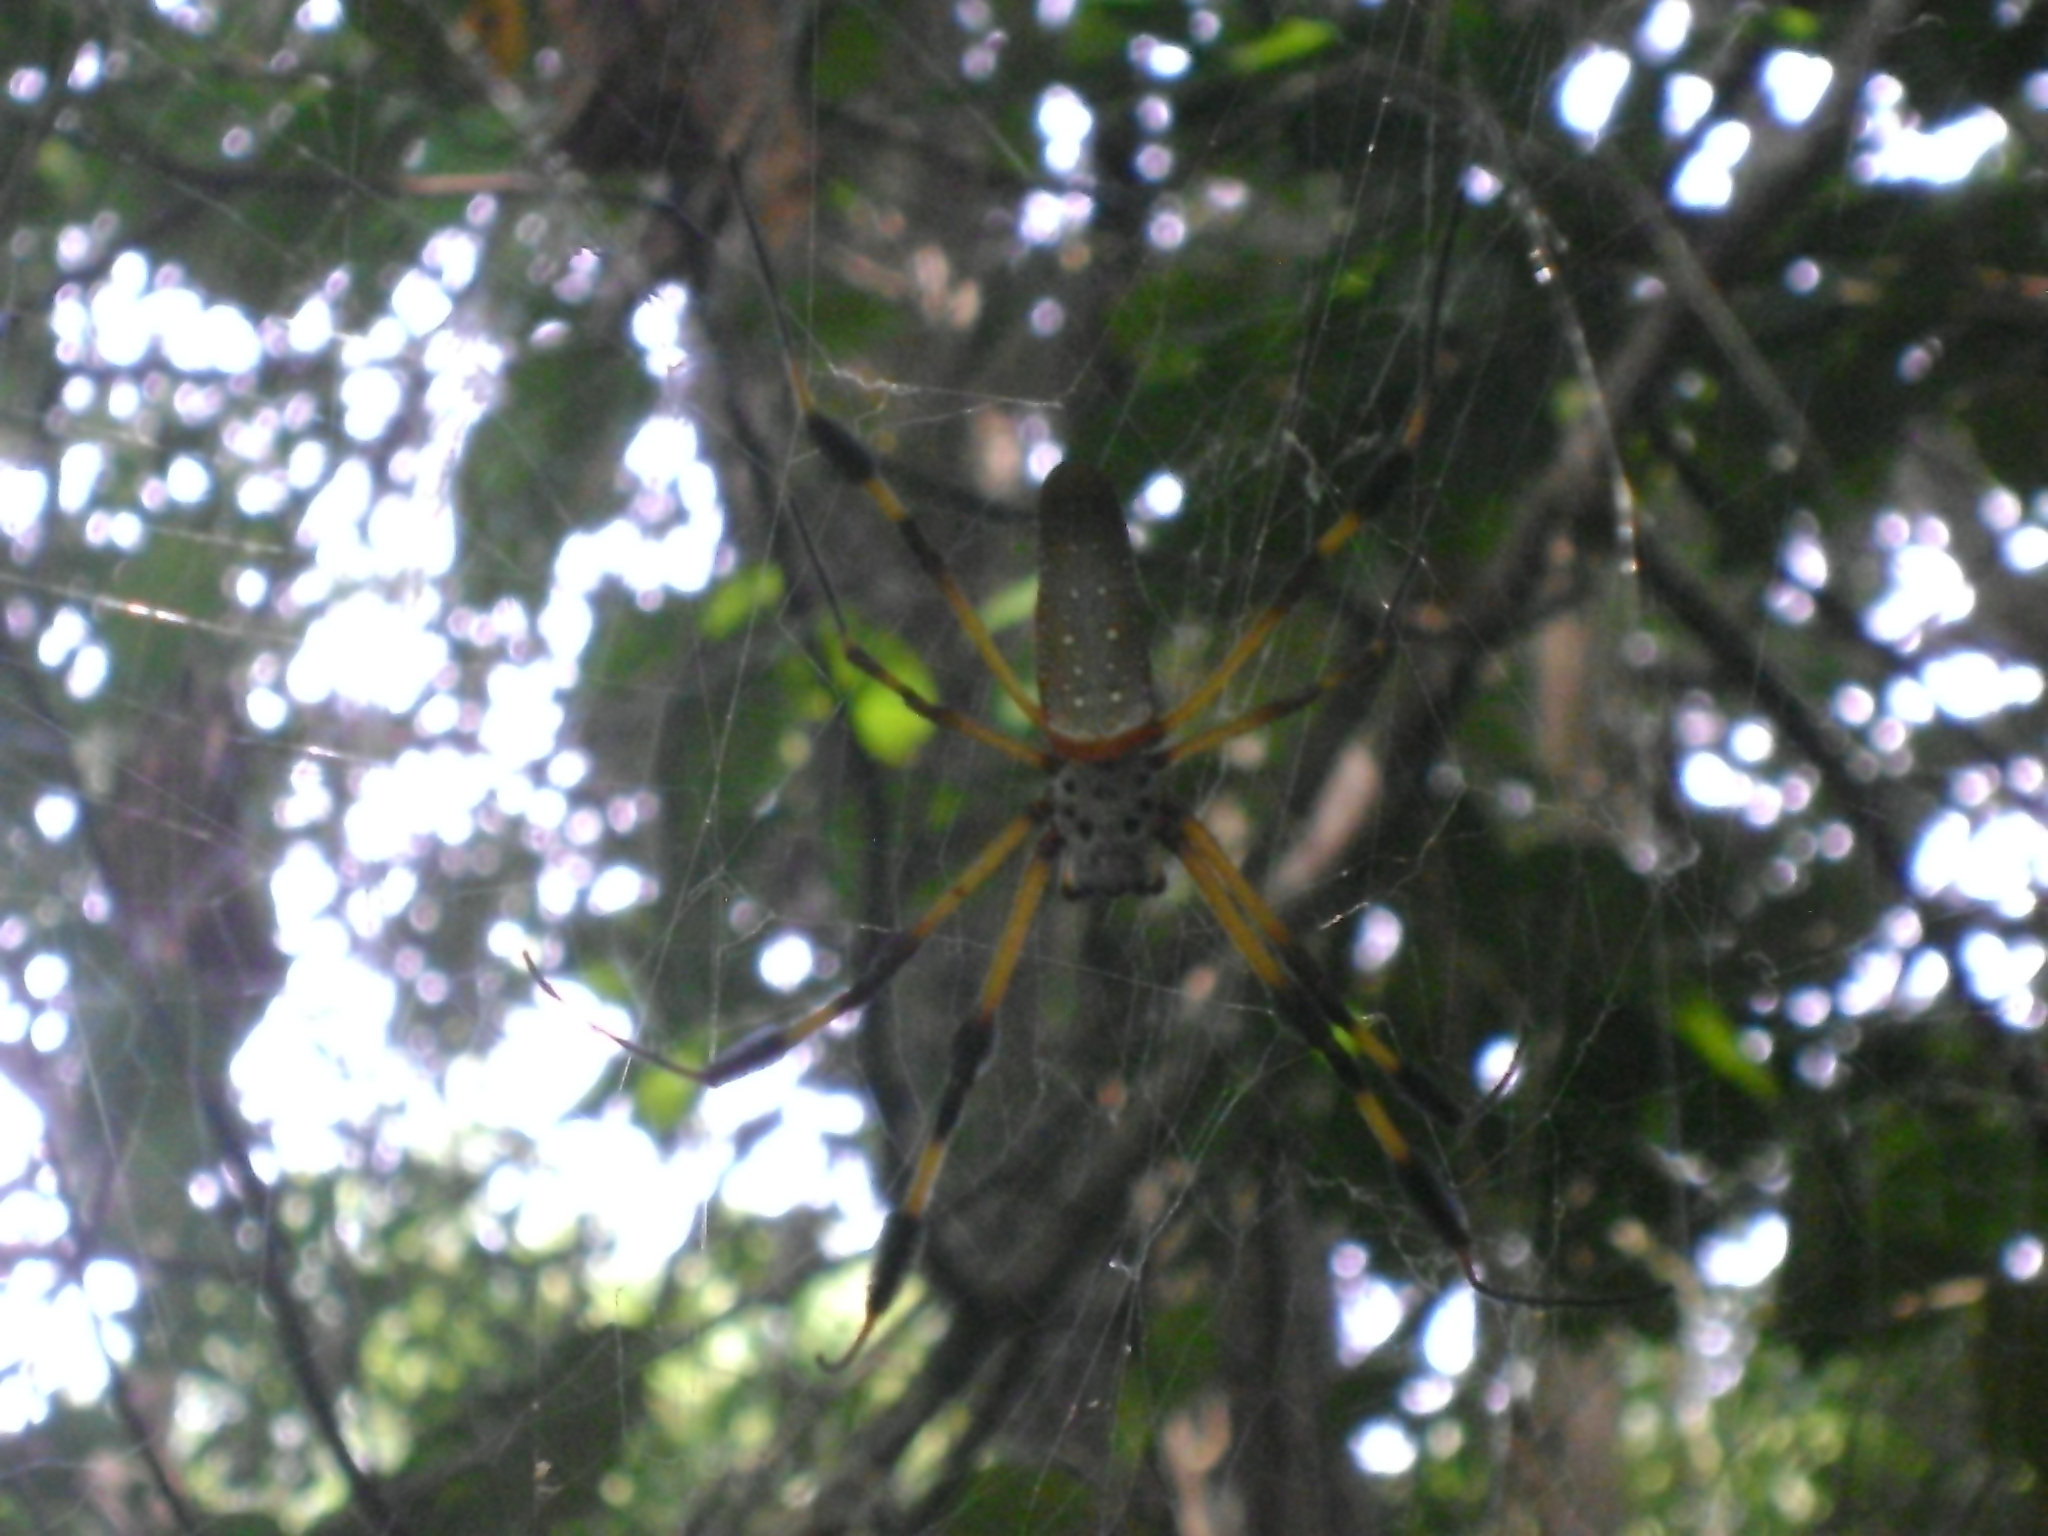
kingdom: Animalia
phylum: Arthropoda
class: Arachnida
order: Araneae
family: Araneidae
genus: Trichonephila
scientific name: Trichonephila clavipes
